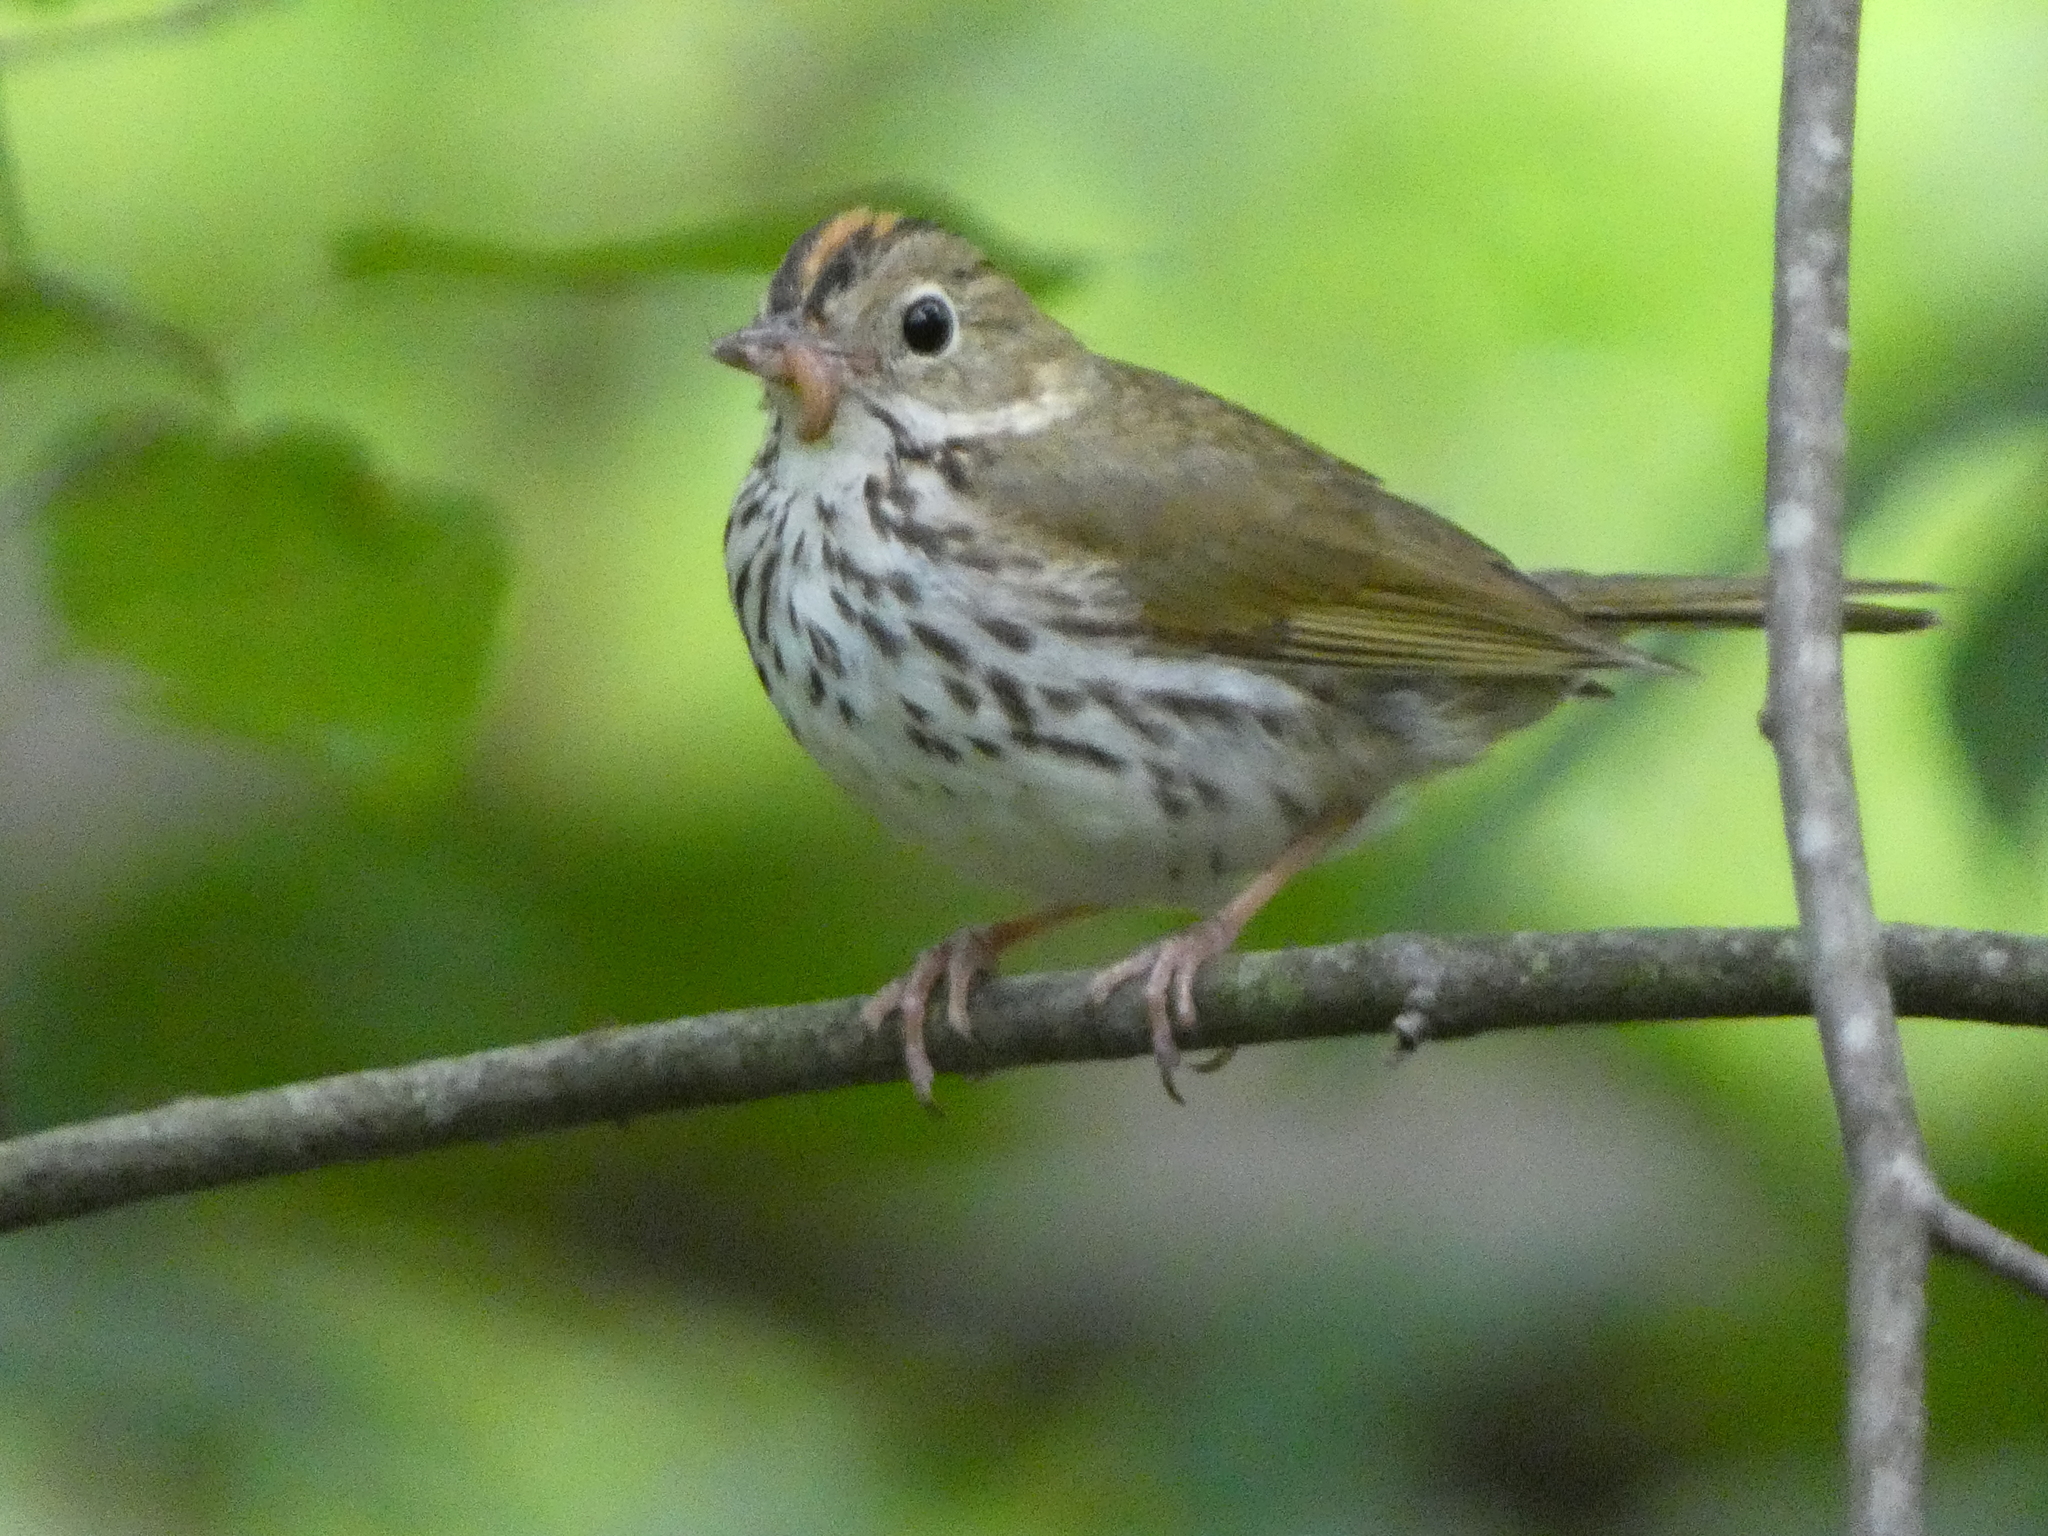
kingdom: Animalia
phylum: Chordata
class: Aves
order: Passeriformes
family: Parulidae
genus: Seiurus
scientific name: Seiurus aurocapilla
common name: Ovenbird
